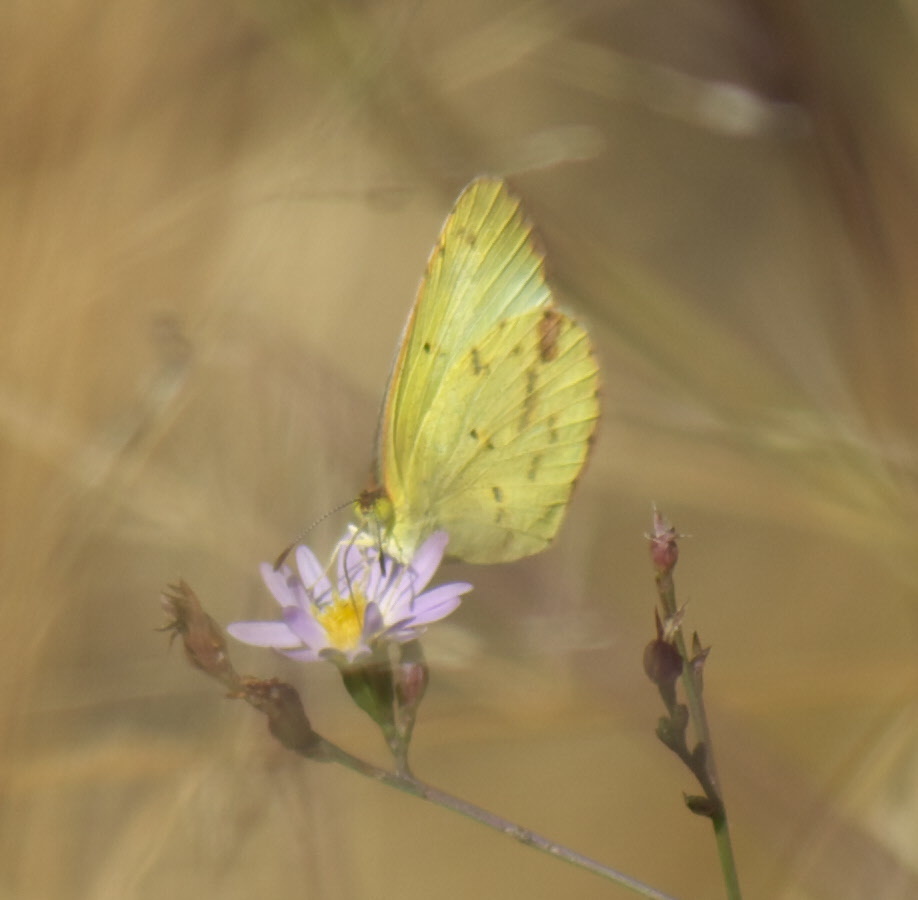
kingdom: Animalia
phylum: Arthropoda
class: Insecta
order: Lepidoptera
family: Pieridae
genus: Pyrisitia
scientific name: Pyrisitia lisa
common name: Little yellow
